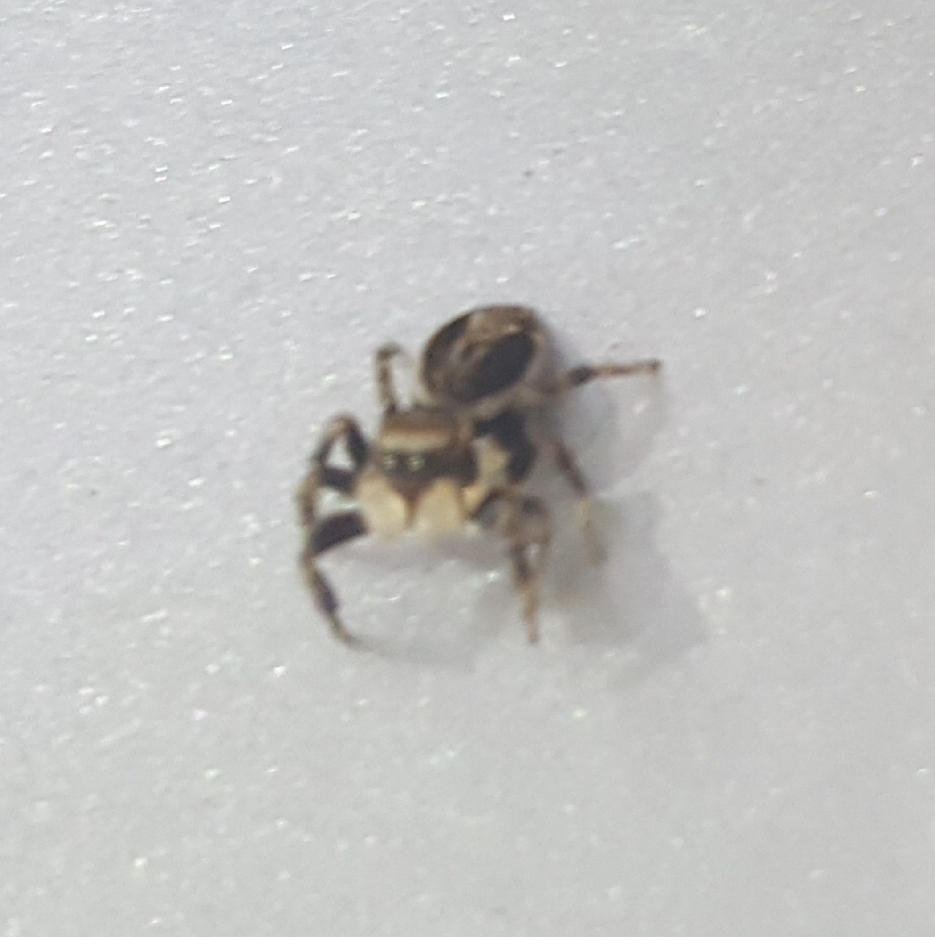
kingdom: Animalia
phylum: Arthropoda
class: Arachnida
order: Araneae
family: Salticidae
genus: Evarcha
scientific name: Evarcha proszynskii
